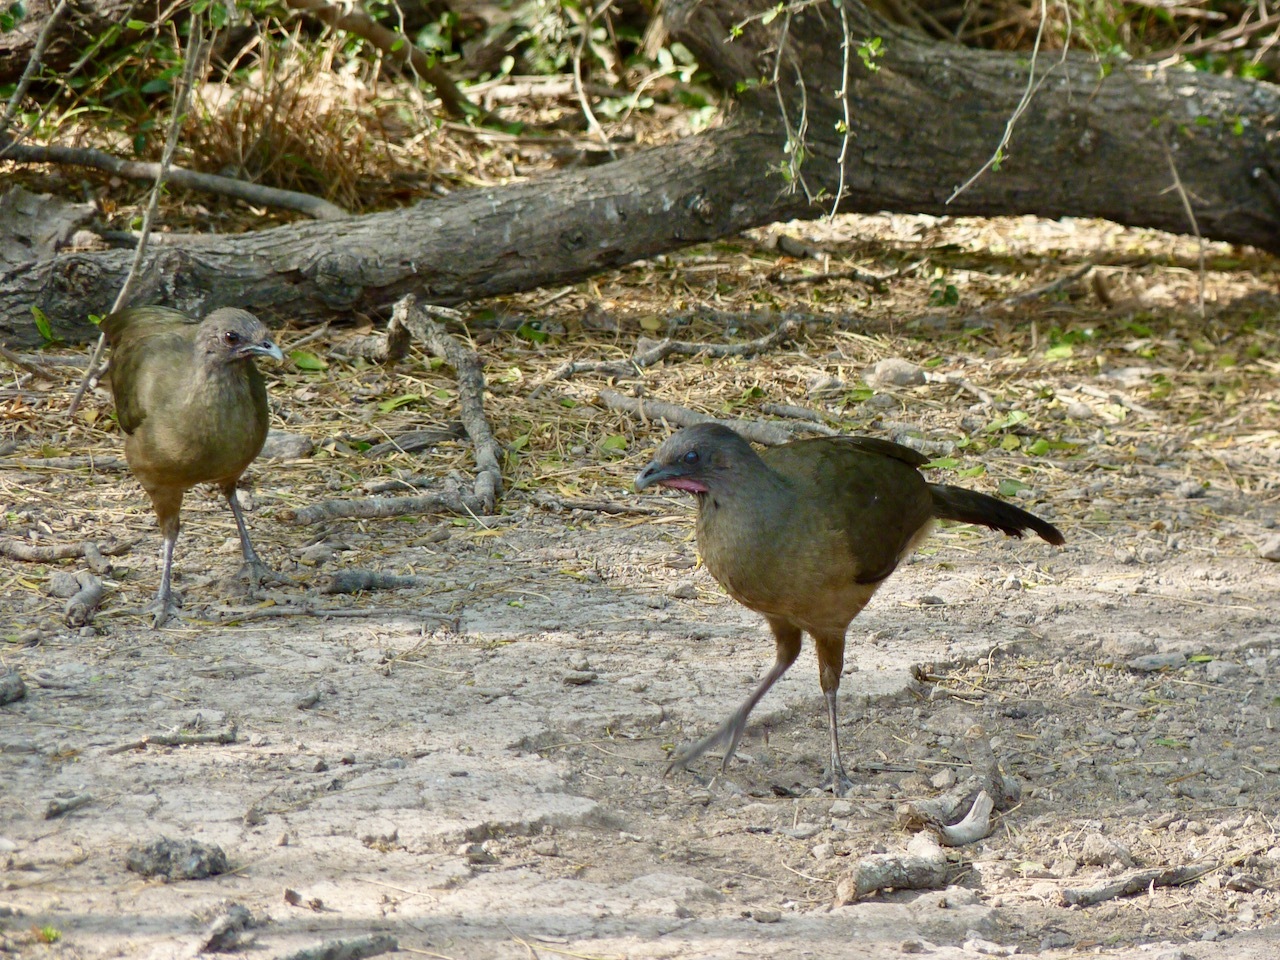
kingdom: Animalia
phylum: Chordata
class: Aves
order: Galliformes
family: Cracidae
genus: Ortalis
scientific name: Ortalis vetula
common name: Plain chachalaca
